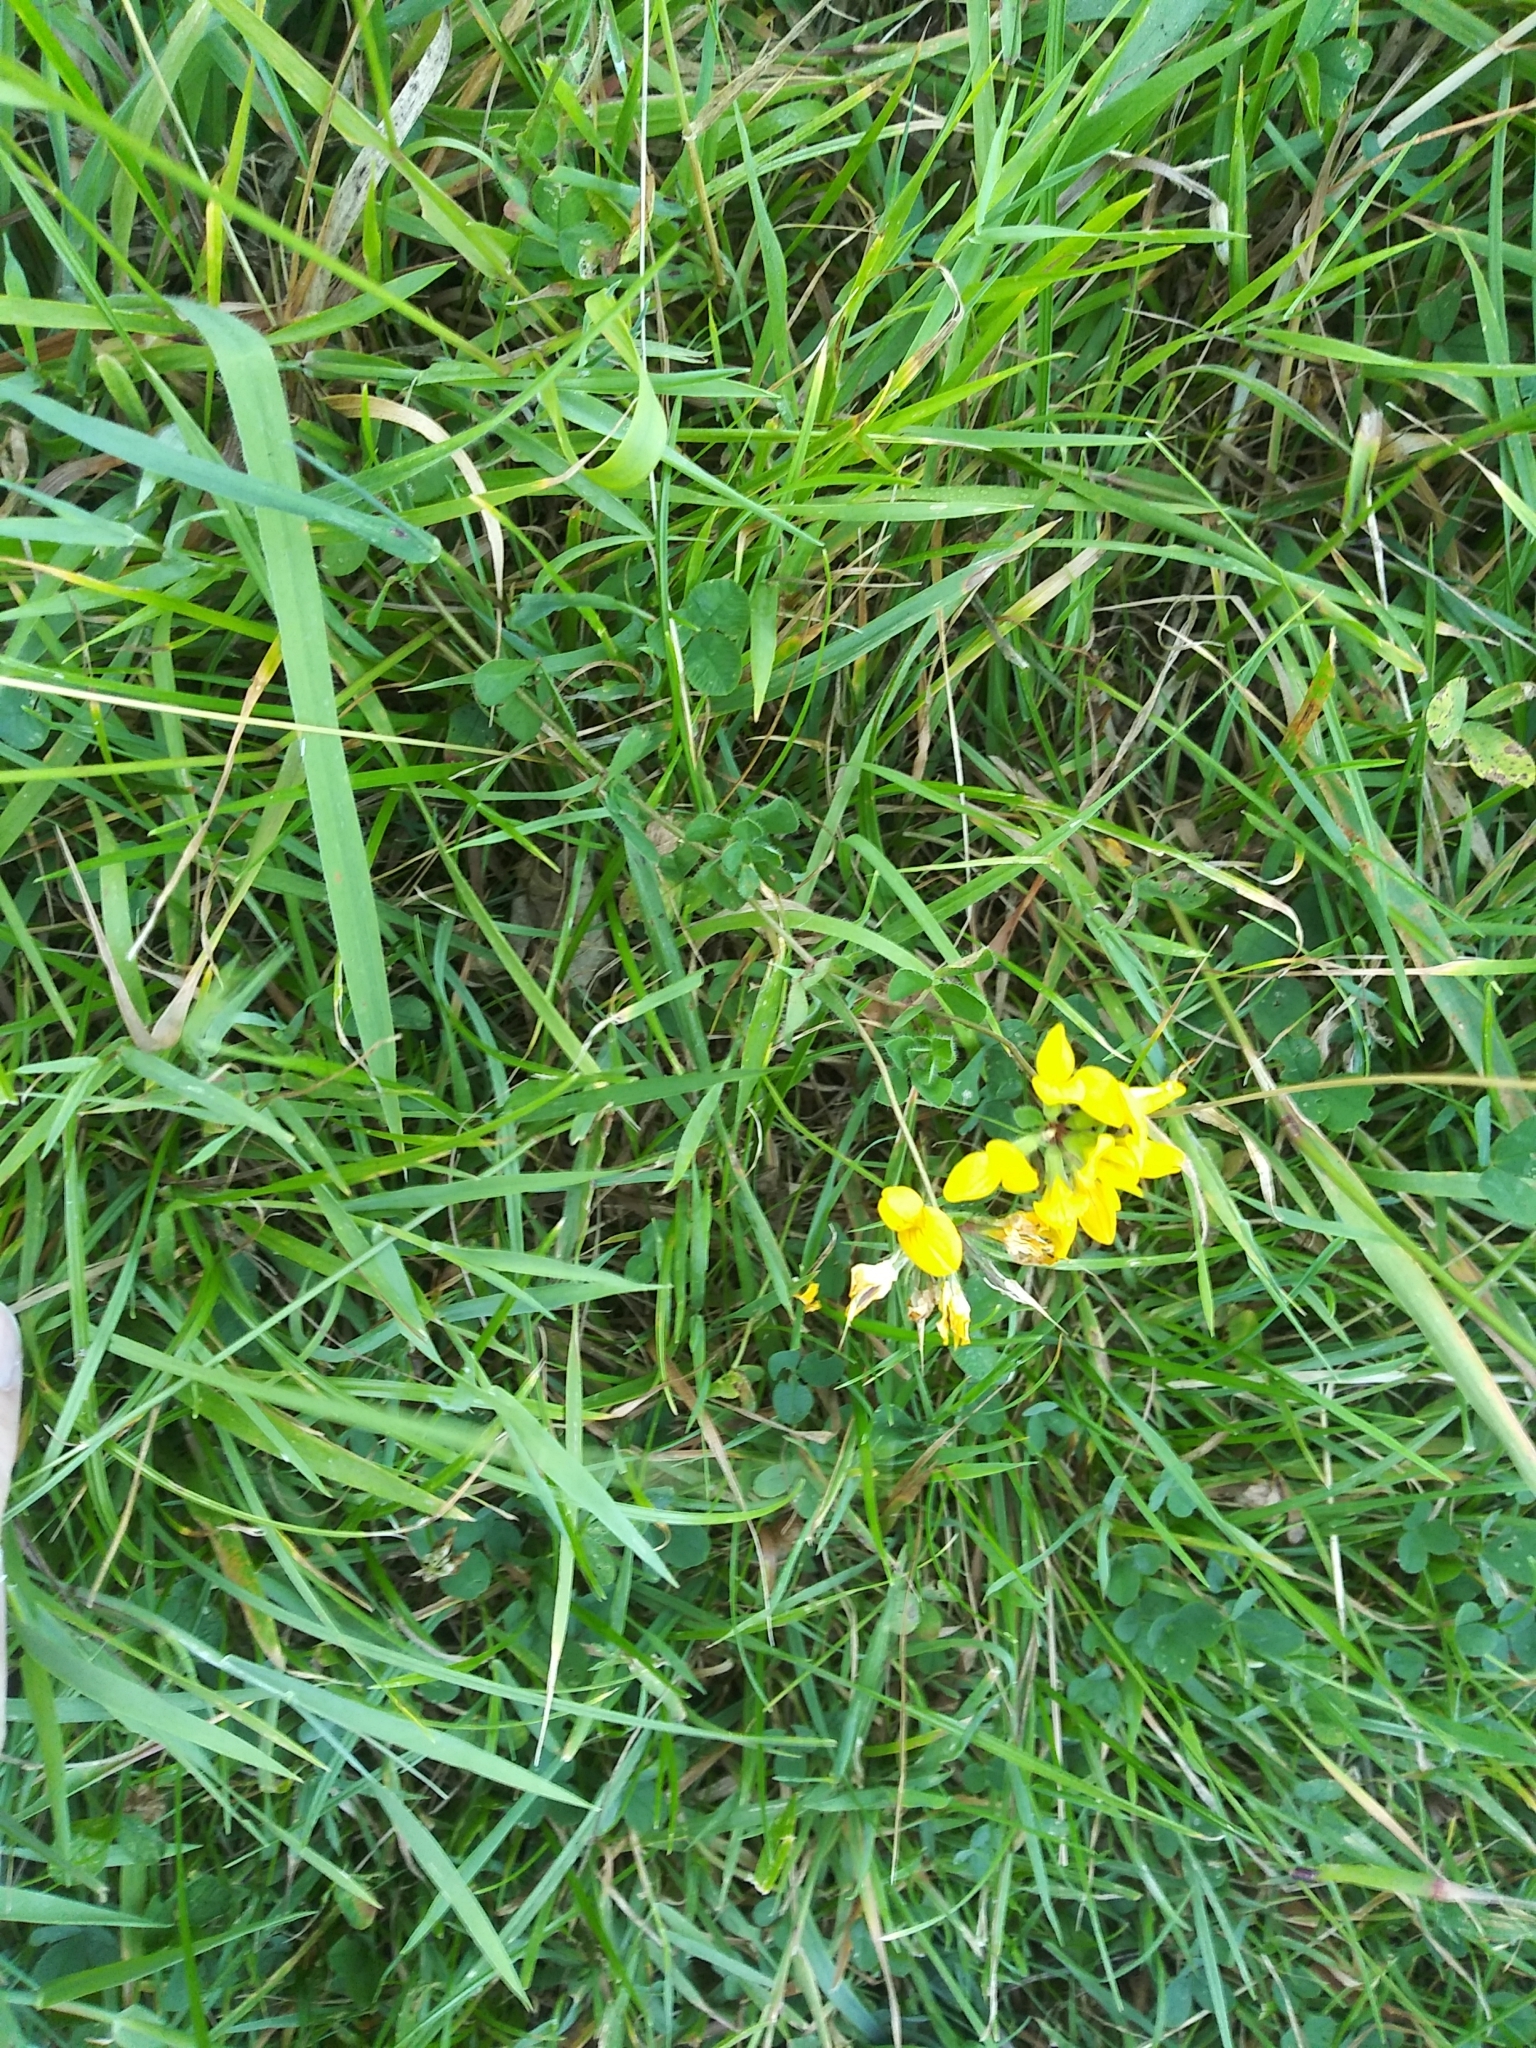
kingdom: Plantae
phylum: Tracheophyta
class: Magnoliopsida
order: Fabales
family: Fabaceae
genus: Lotus
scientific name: Lotus pedunculatus
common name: Greater birdsfoot-trefoil
